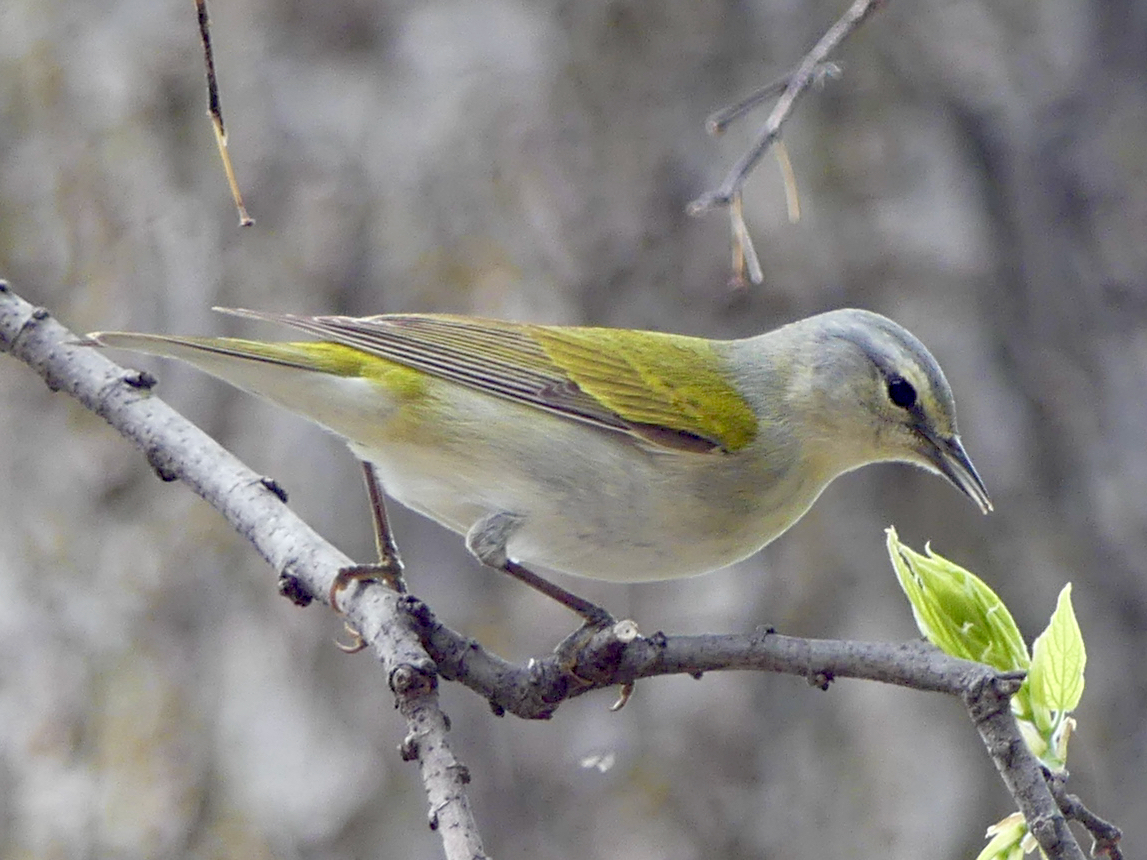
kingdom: Animalia
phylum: Chordata
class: Aves
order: Passeriformes
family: Parulidae
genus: Leiothlypis
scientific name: Leiothlypis peregrina
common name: Tennessee warbler
